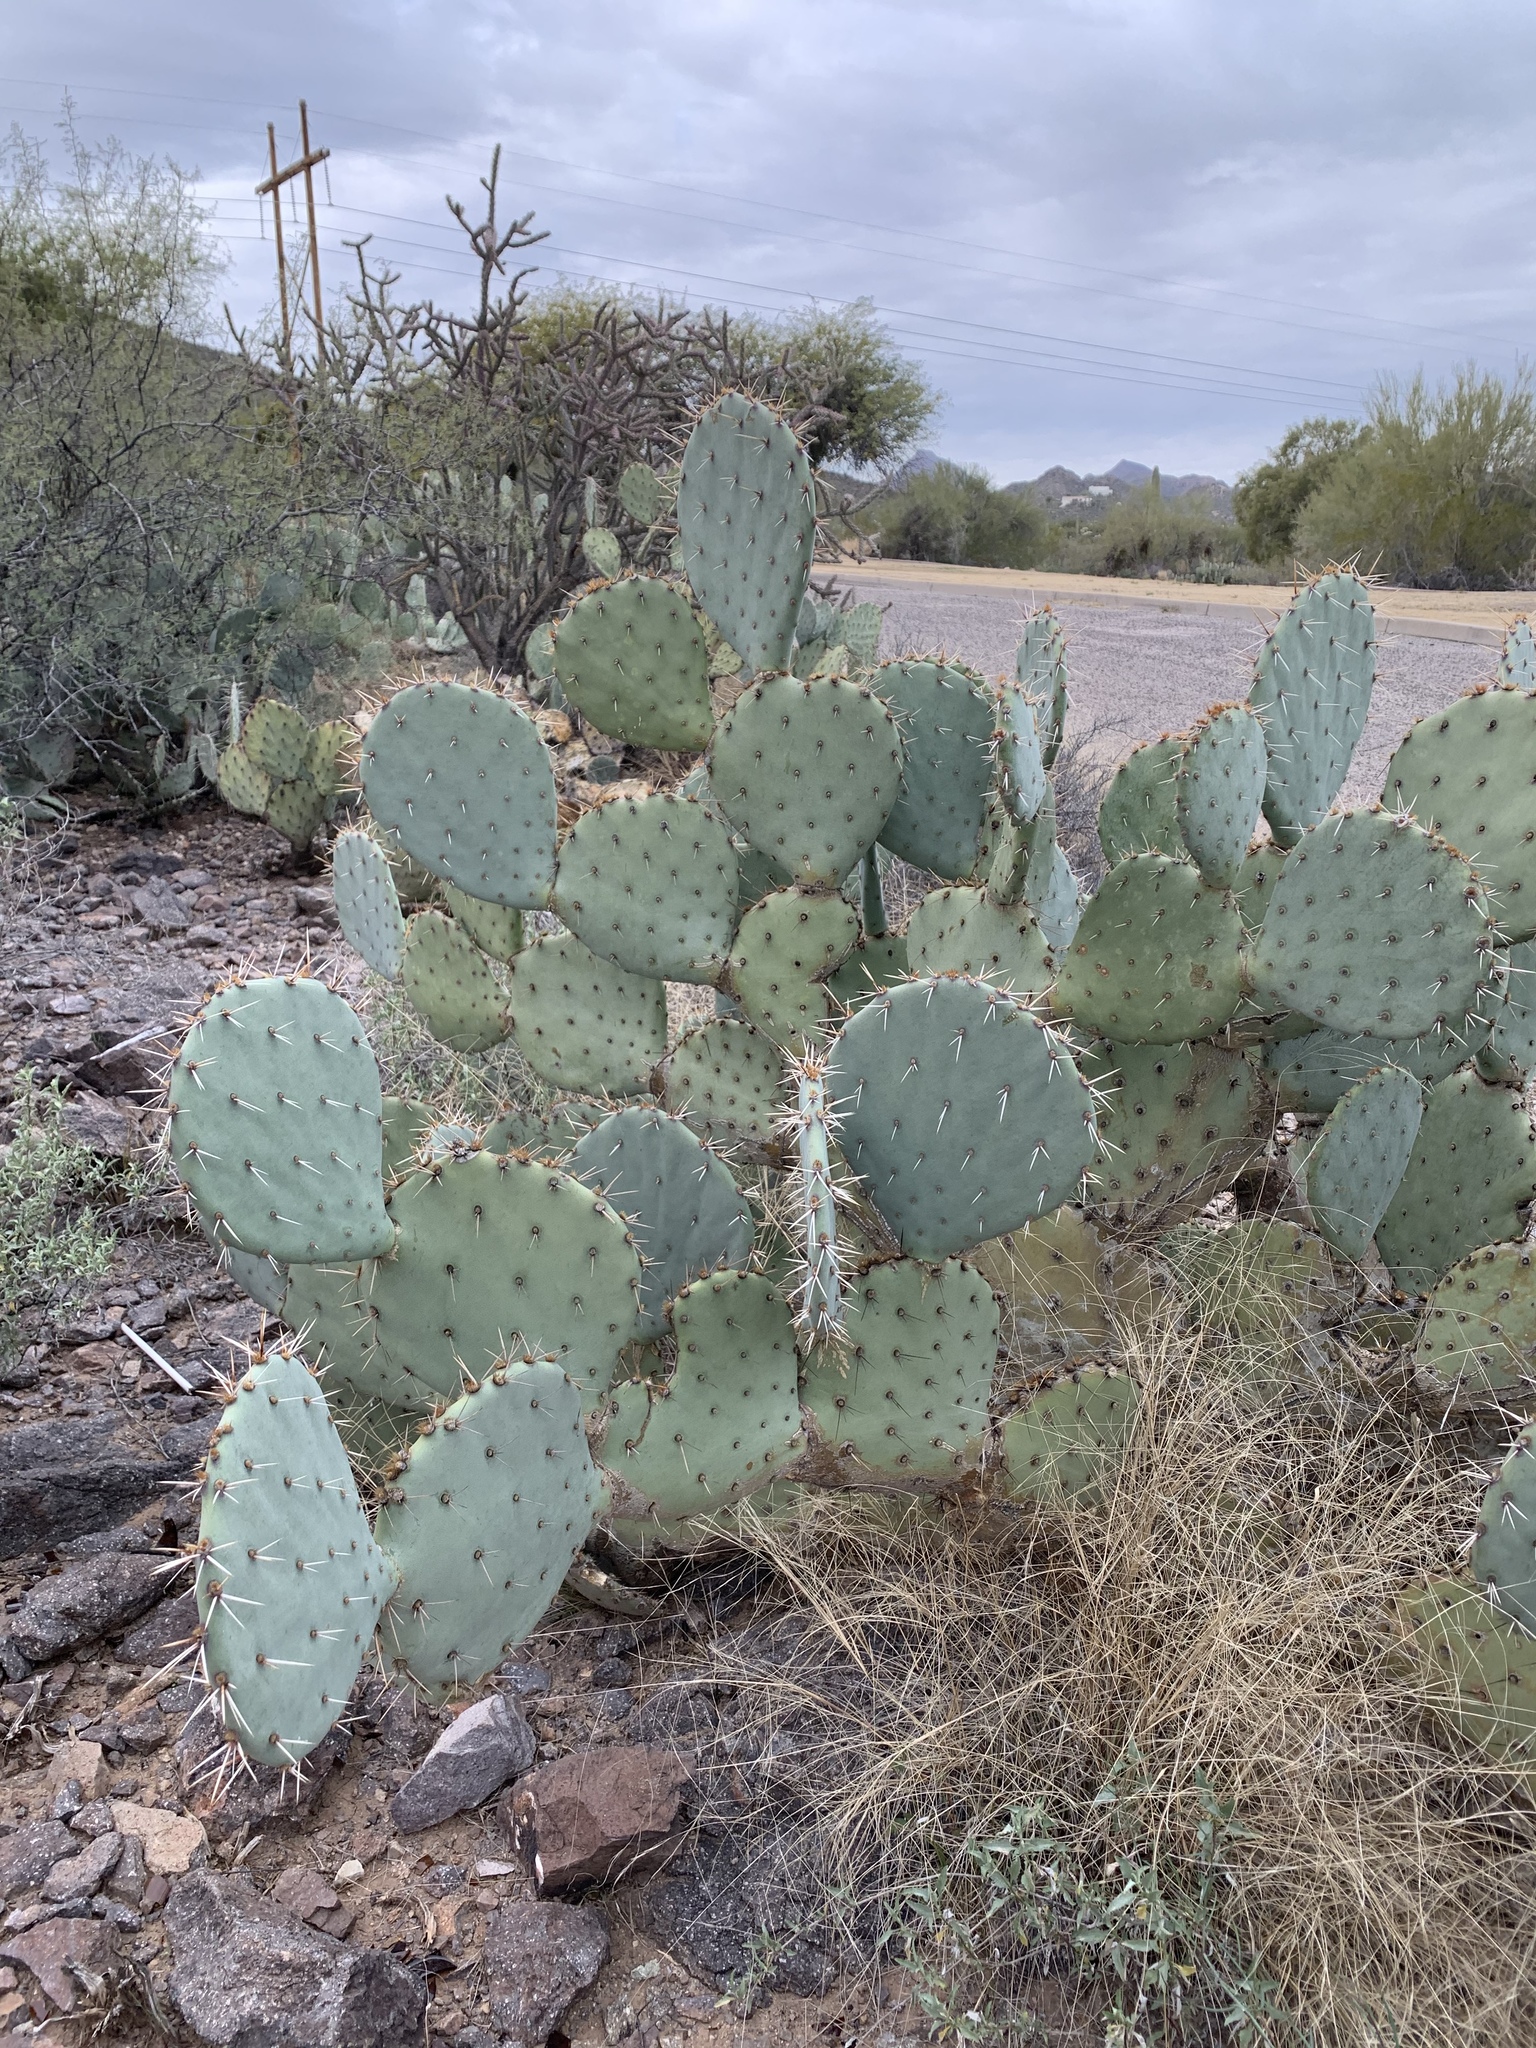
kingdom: Plantae
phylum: Tracheophyta
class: Magnoliopsida
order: Caryophyllales
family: Cactaceae
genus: Opuntia
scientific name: Opuntia engelmannii
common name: Cactus-apple
